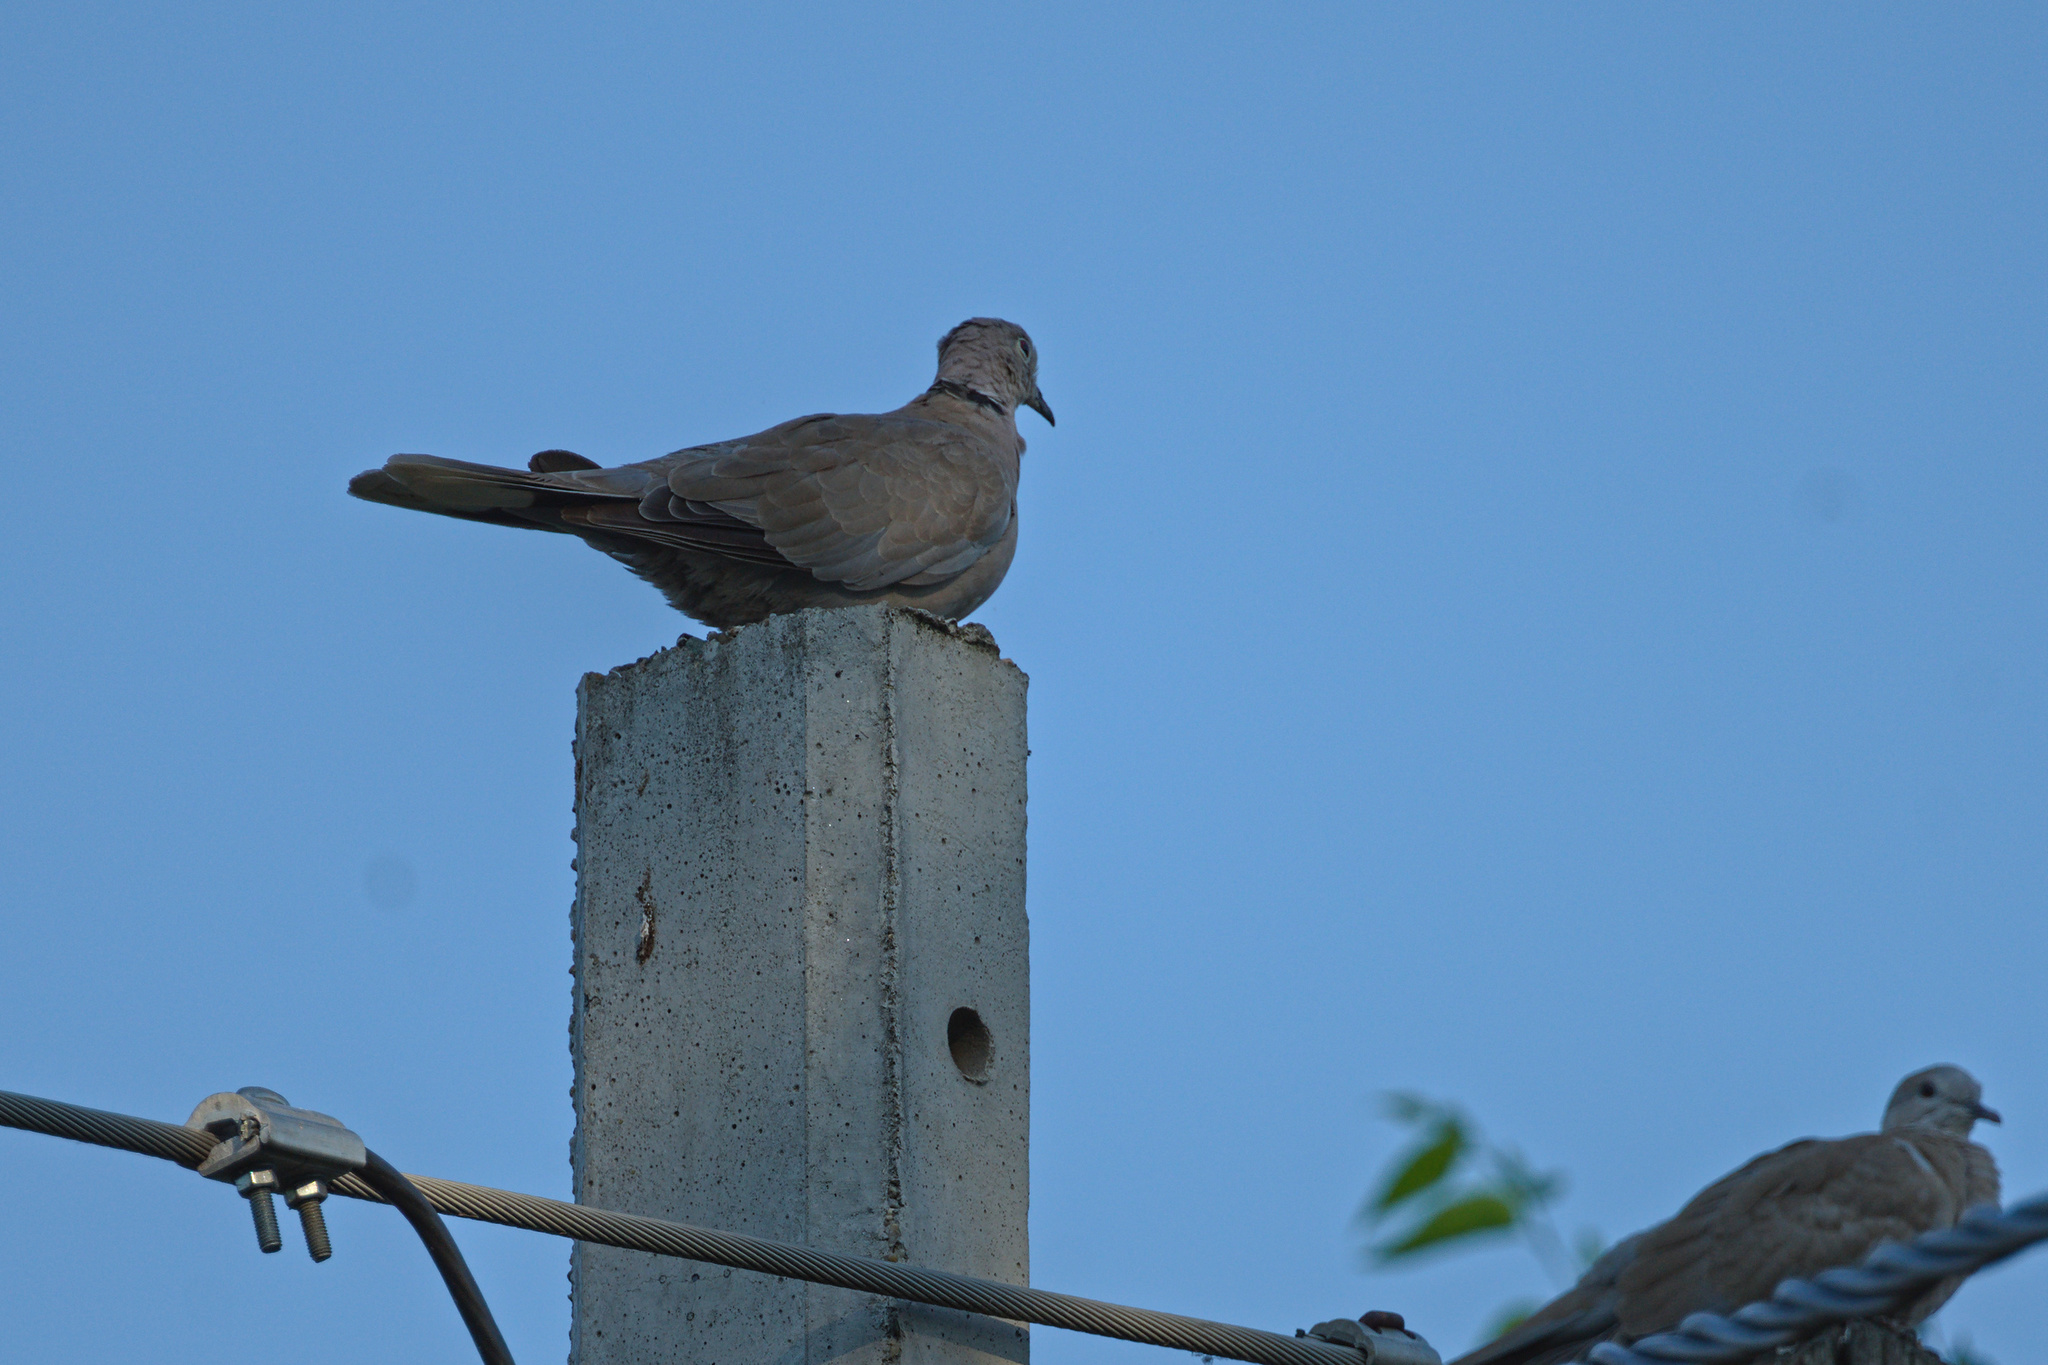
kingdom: Animalia
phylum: Chordata
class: Aves
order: Columbiformes
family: Columbidae
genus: Streptopelia
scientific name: Streptopelia decaocto
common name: Eurasian collared dove
